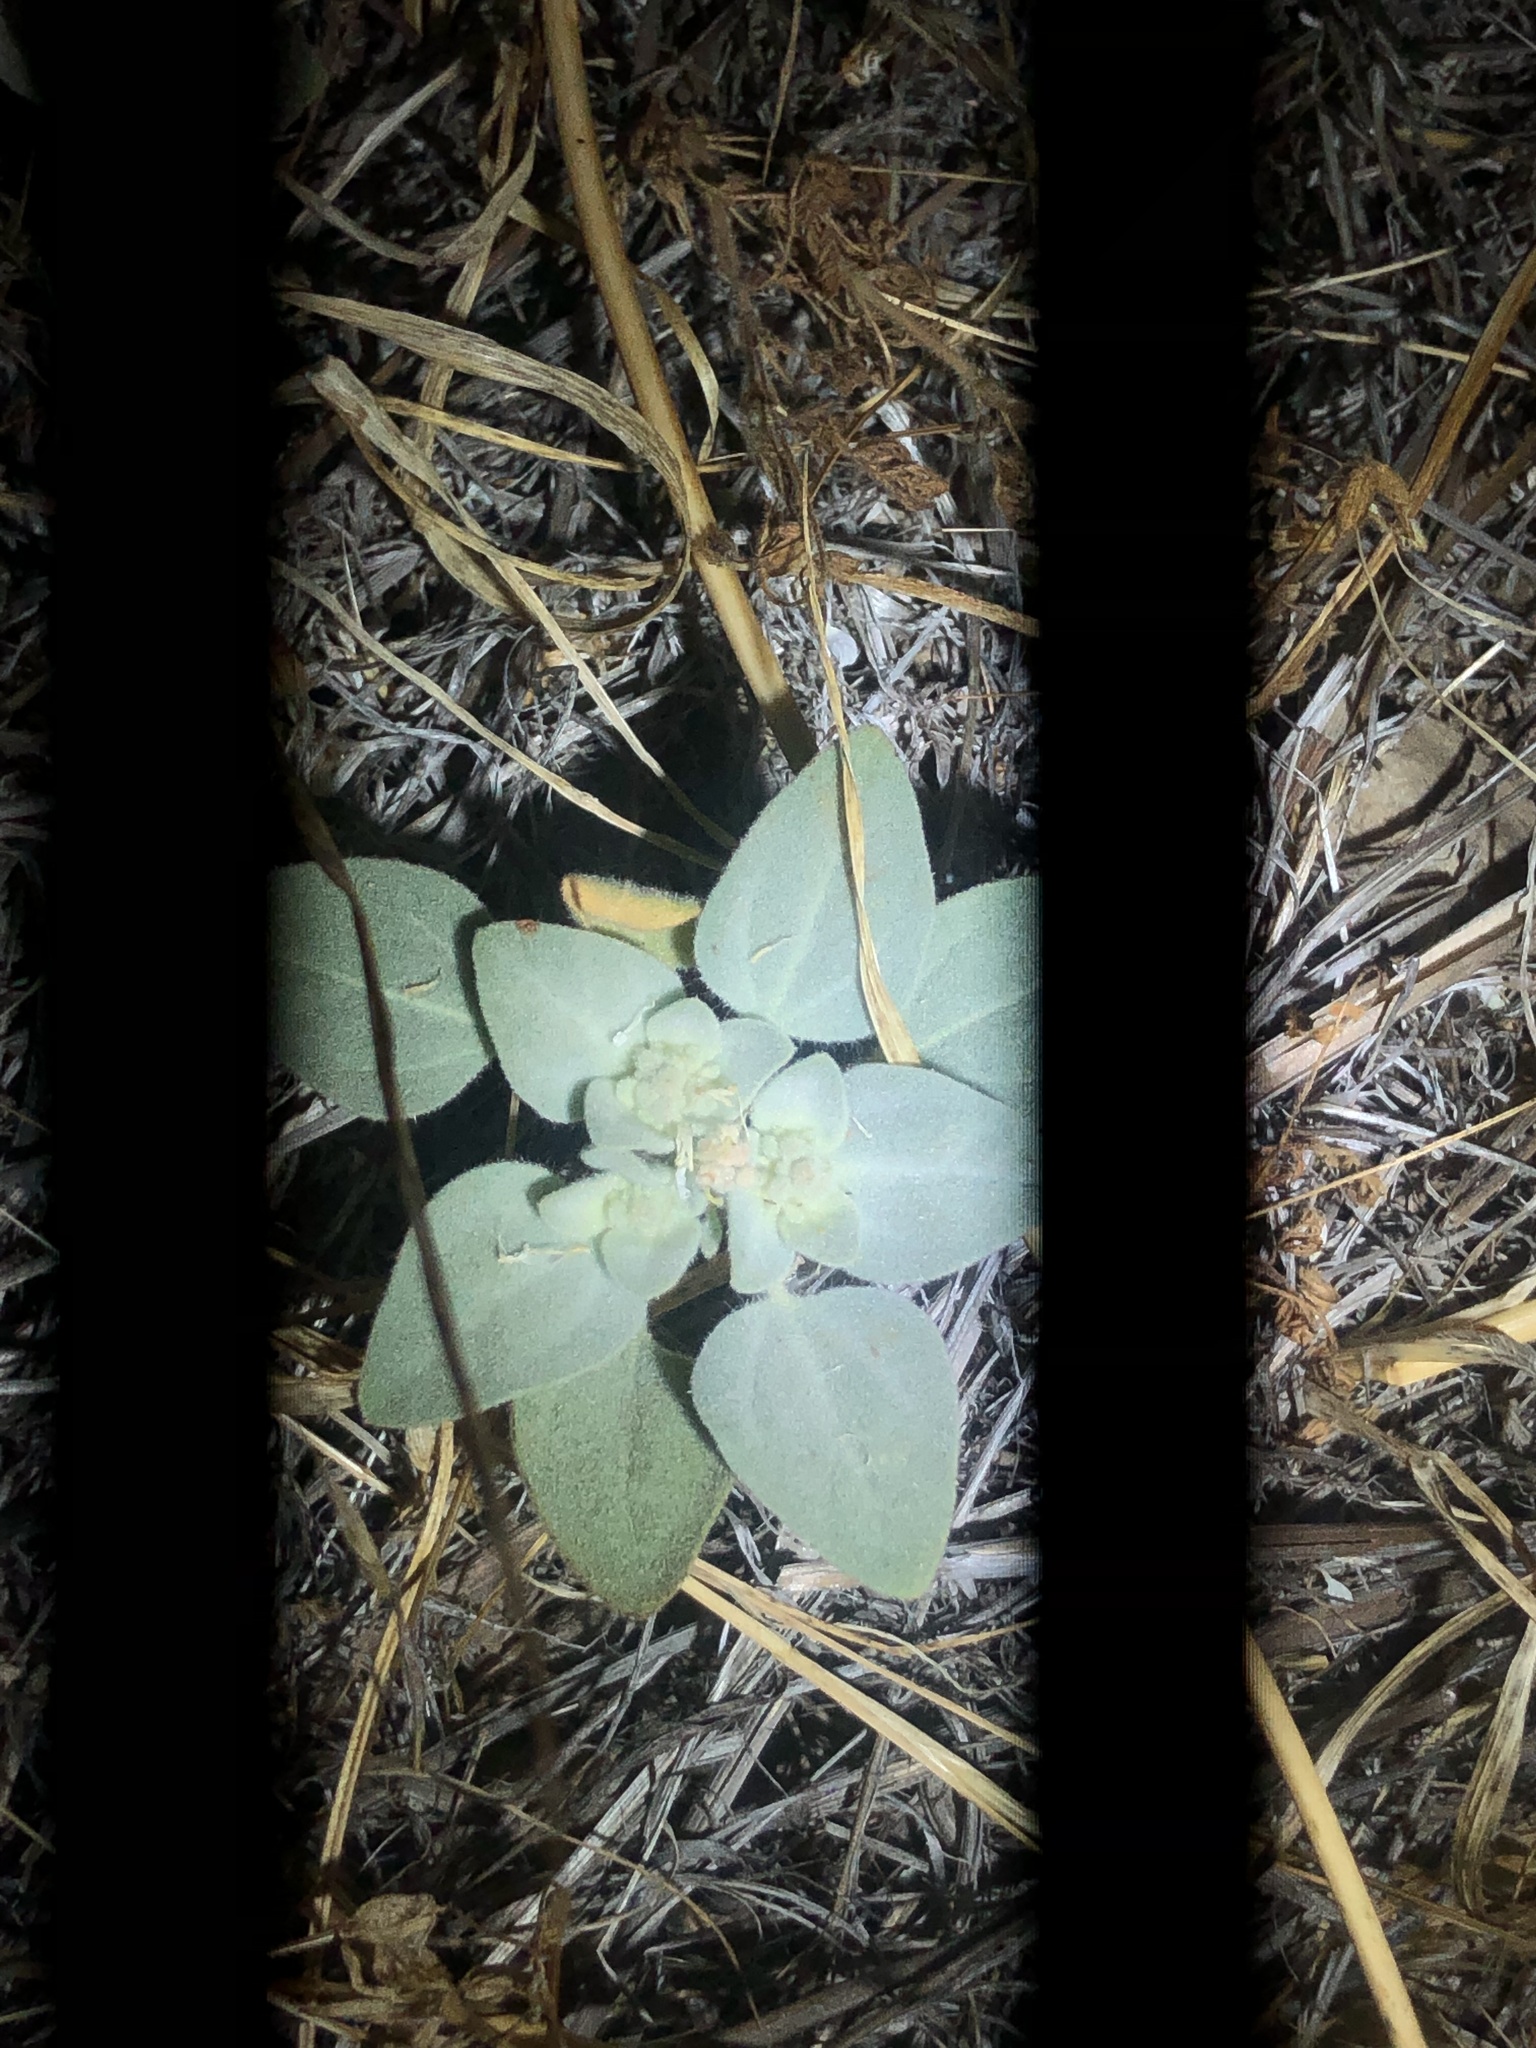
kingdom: Plantae
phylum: Tracheophyta
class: Magnoliopsida
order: Malpighiales
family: Euphorbiaceae
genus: Croton
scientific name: Croton setiger
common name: Dove weed
